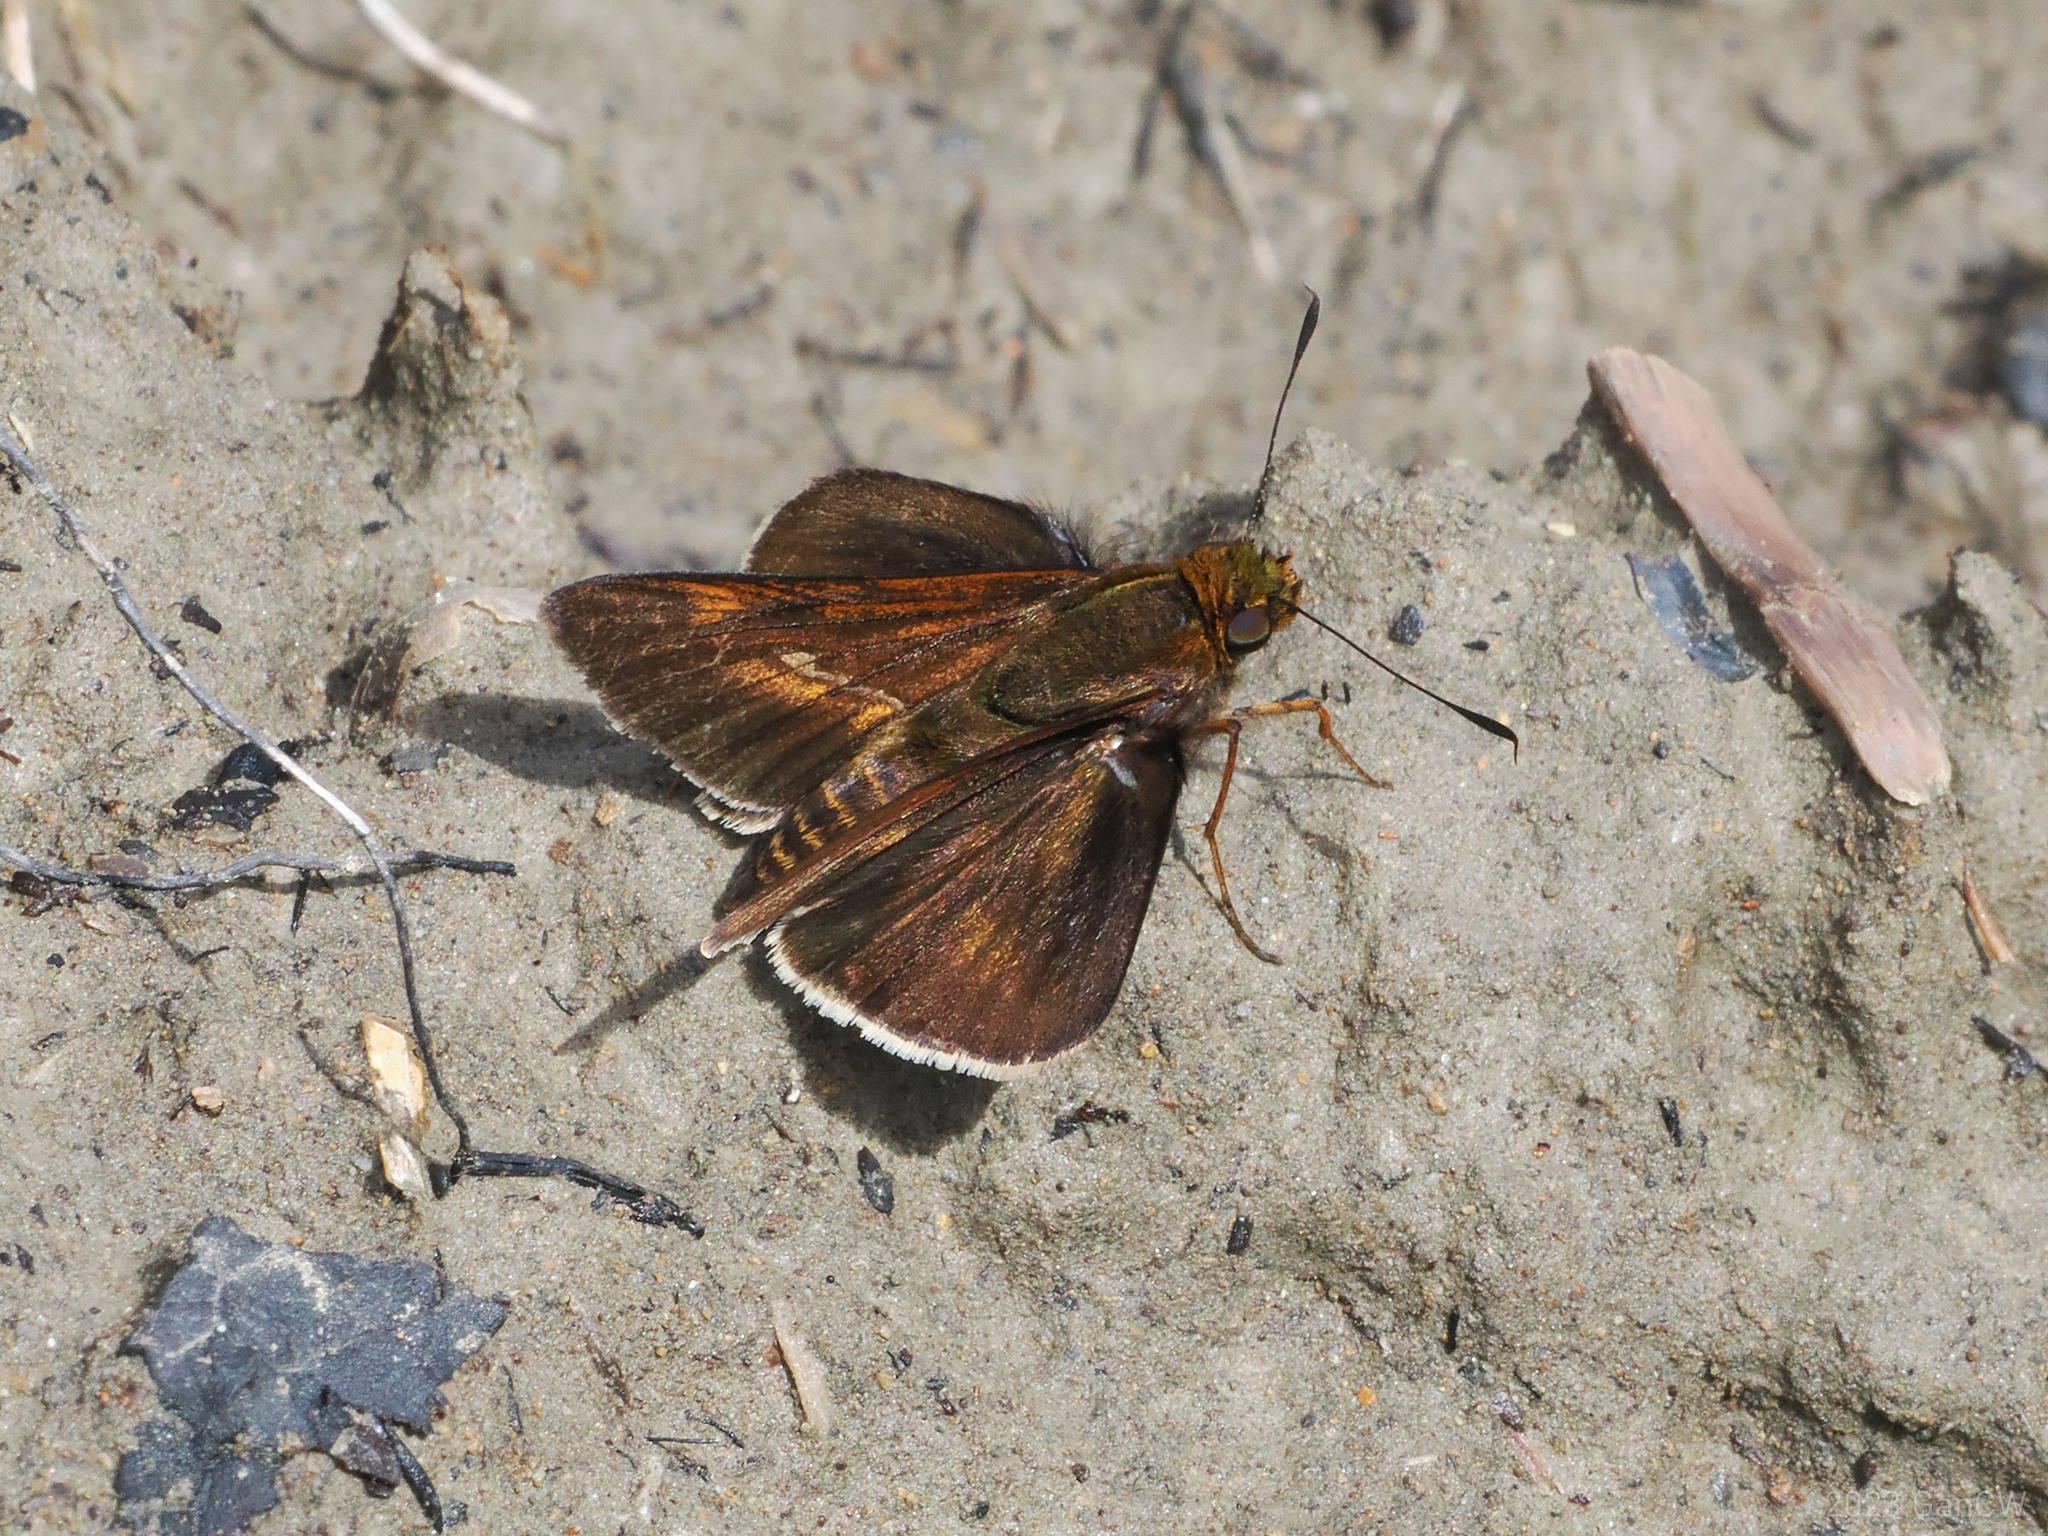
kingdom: Animalia
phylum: Arthropoda
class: Insecta
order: Lepidoptera
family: Hesperiidae
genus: Mimene
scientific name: Mimene
